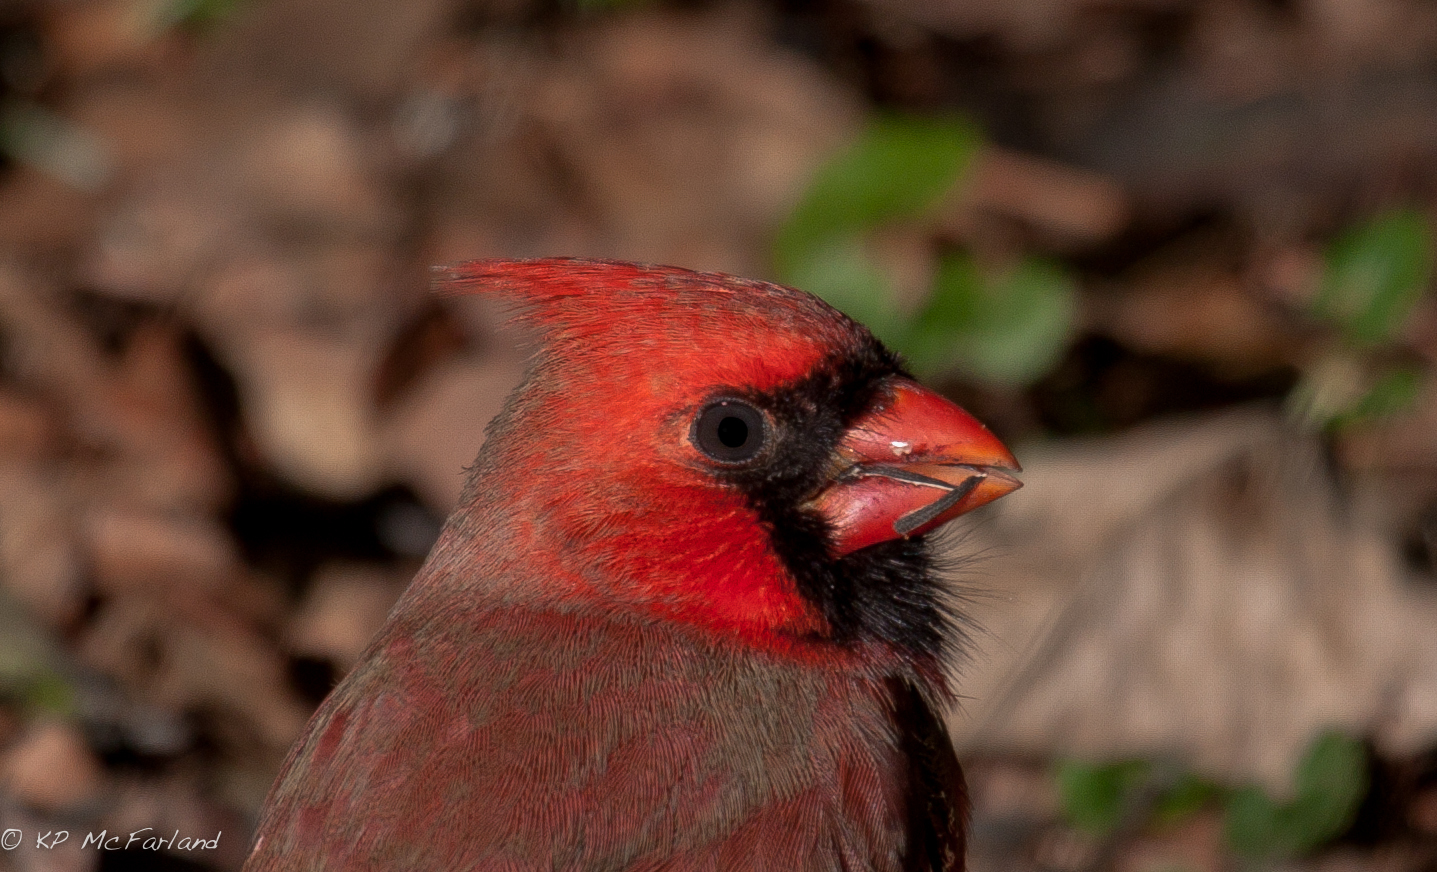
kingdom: Animalia
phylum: Chordata
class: Aves
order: Passeriformes
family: Cardinalidae
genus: Cardinalis
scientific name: Cardinalis cardinalis
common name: Northern cardinal
